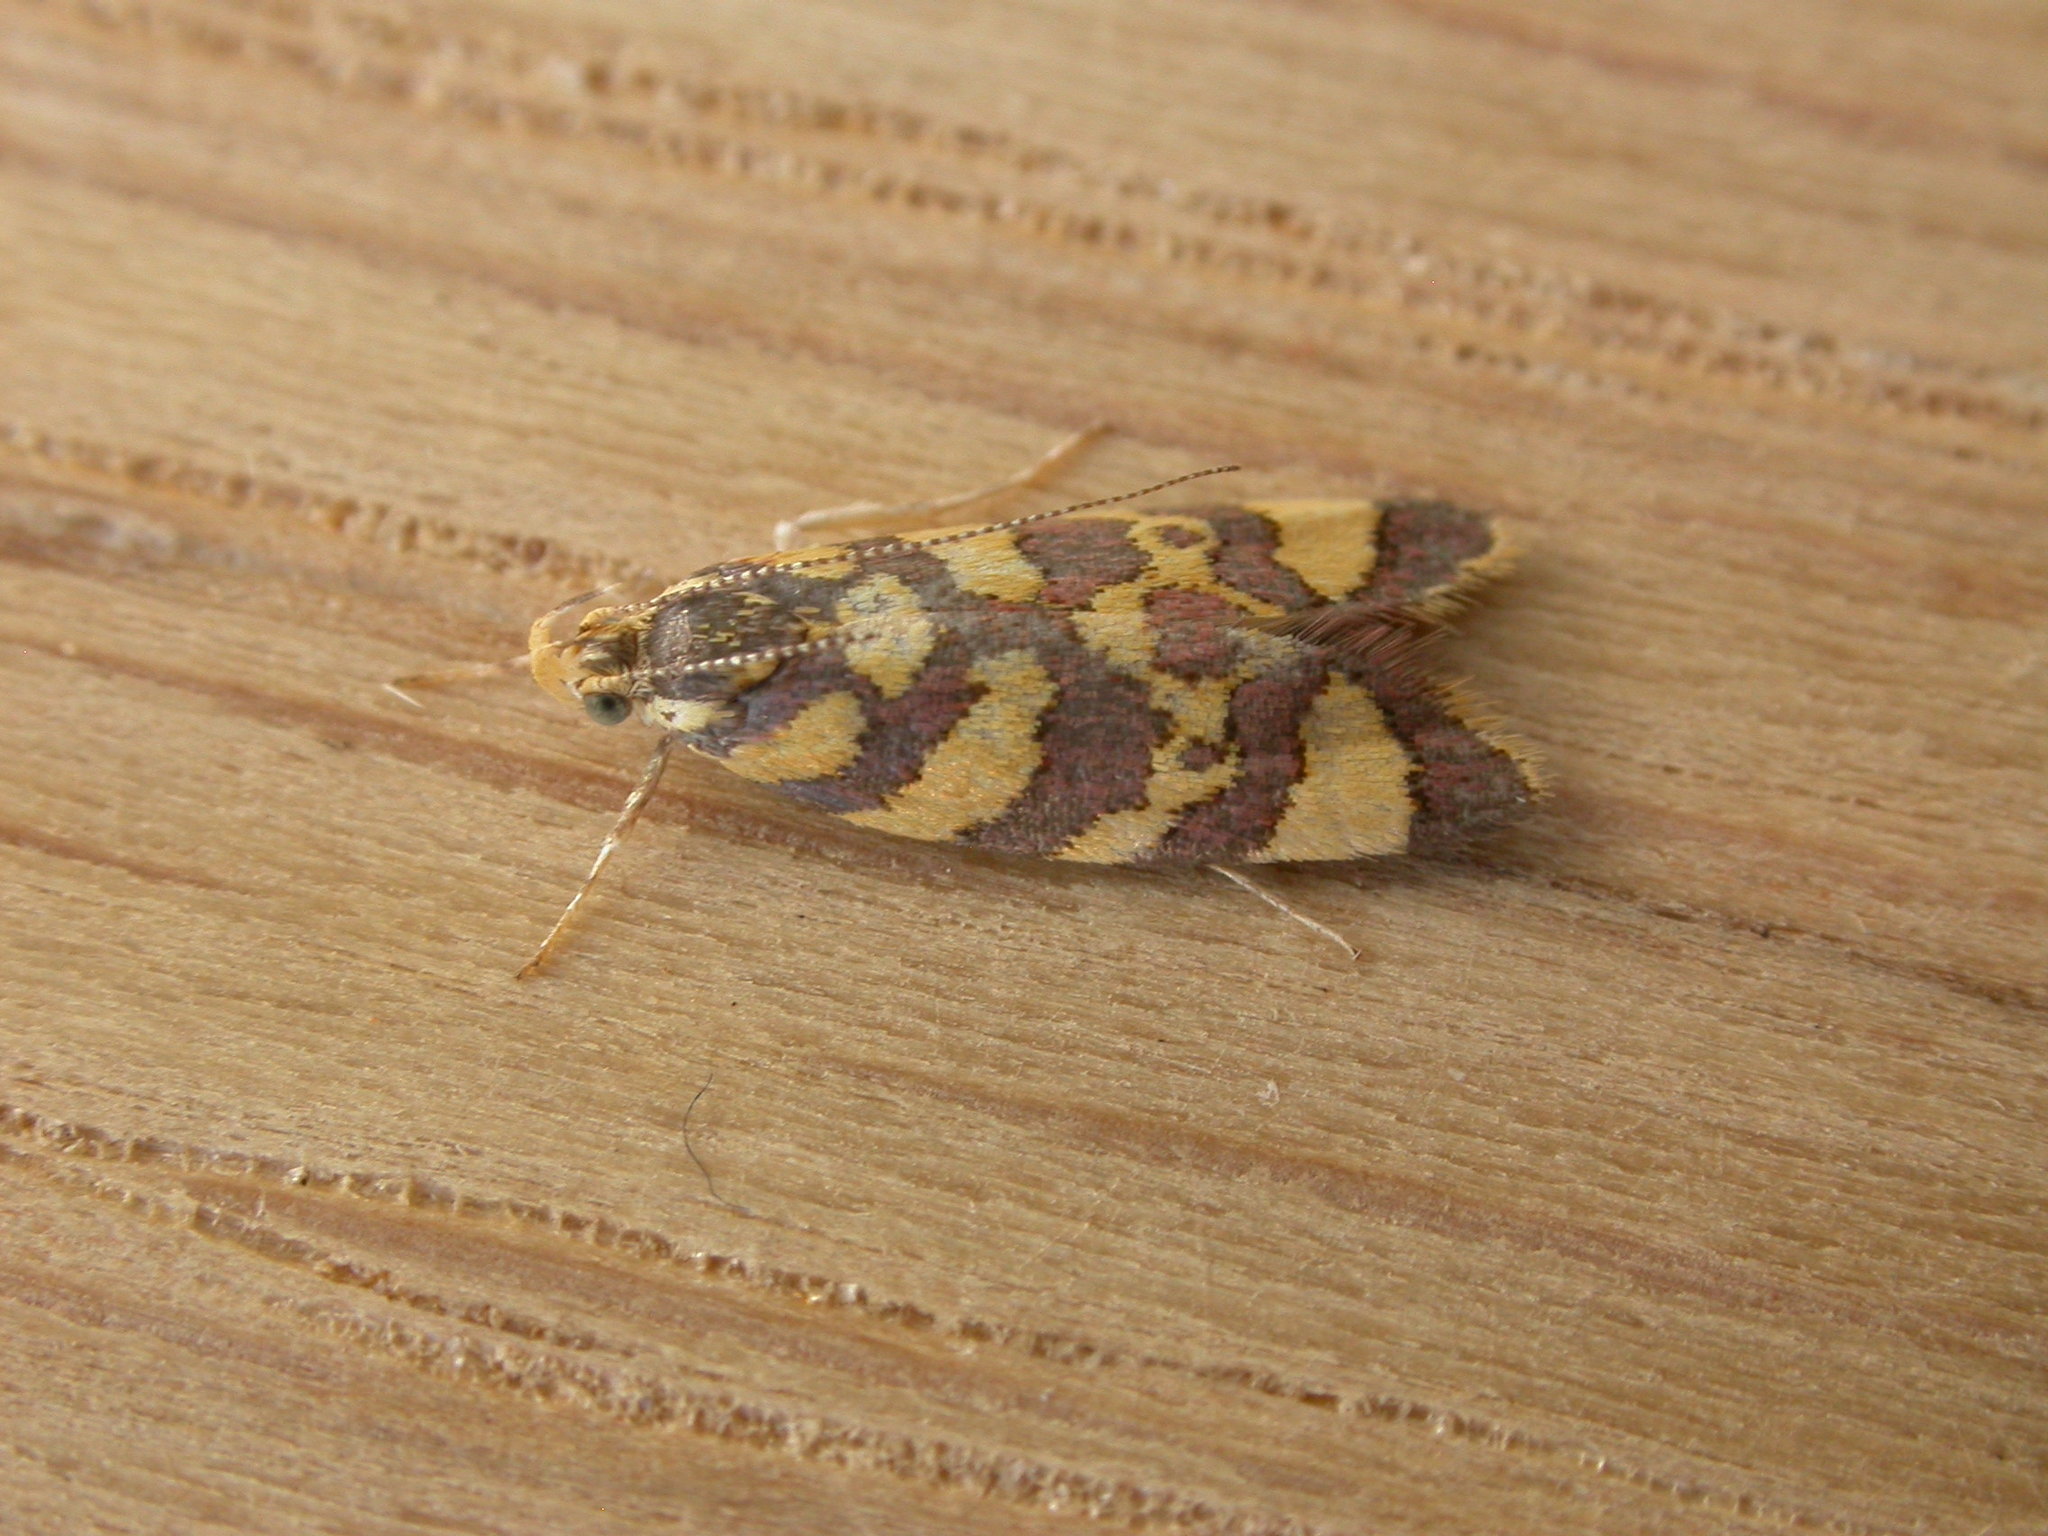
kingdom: Animalia
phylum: Arthropoda
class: Insecta
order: Lepidoptera
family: Oecophoridae
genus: Tisobarica
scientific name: Tisobarica thyteria
